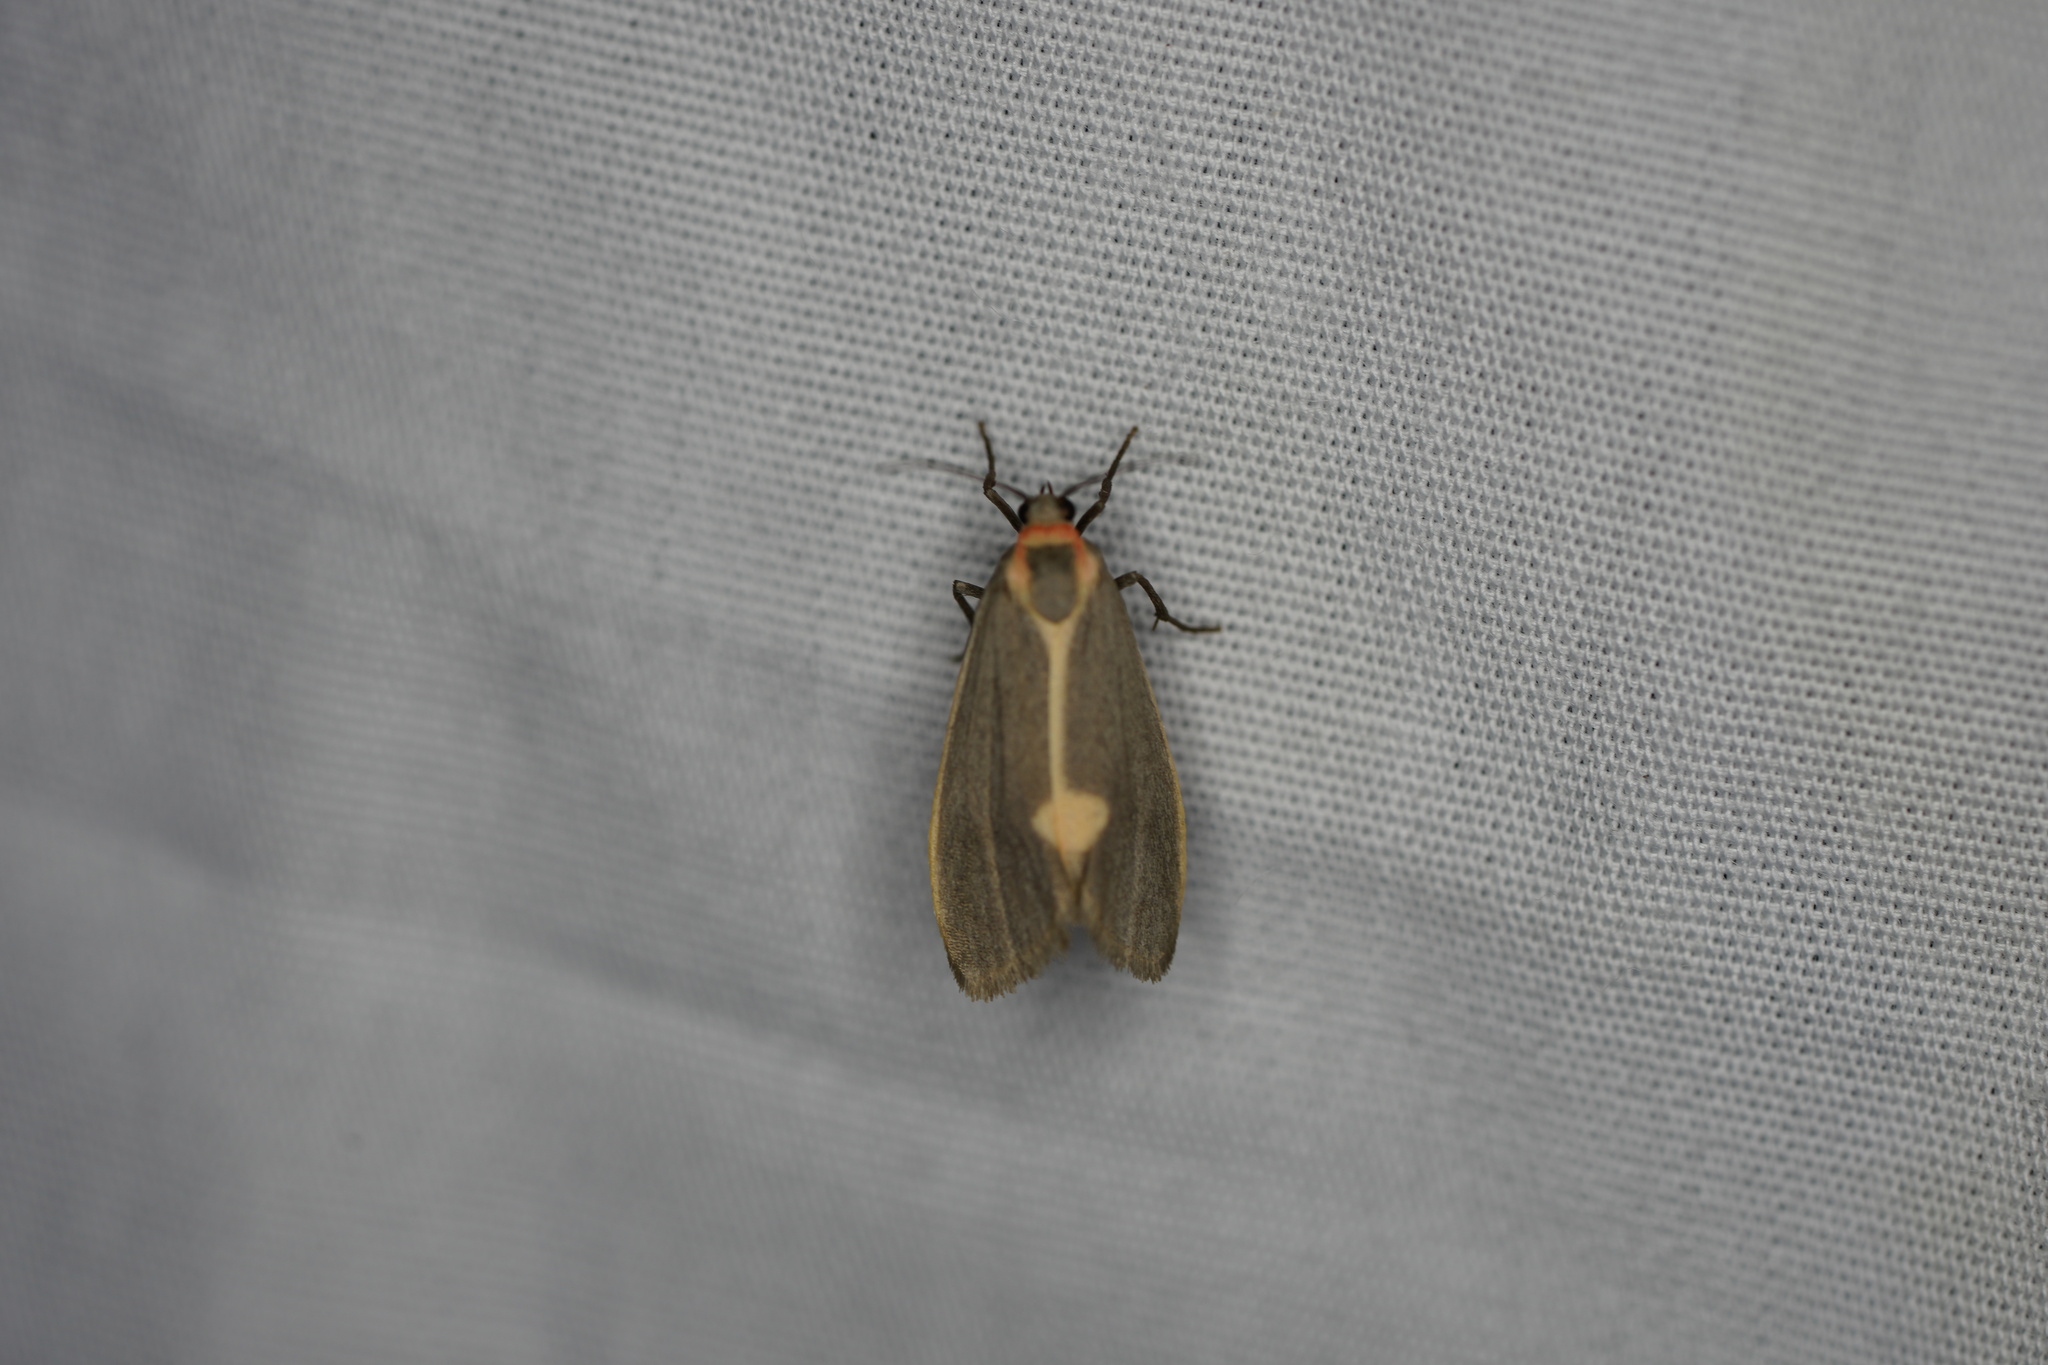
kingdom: Animalia
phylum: Arthropoda
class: Insecta
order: Lepidoptera
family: Erebidae
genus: Cisthene
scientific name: Cisthene plumbea
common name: Lead colored lichen moth
